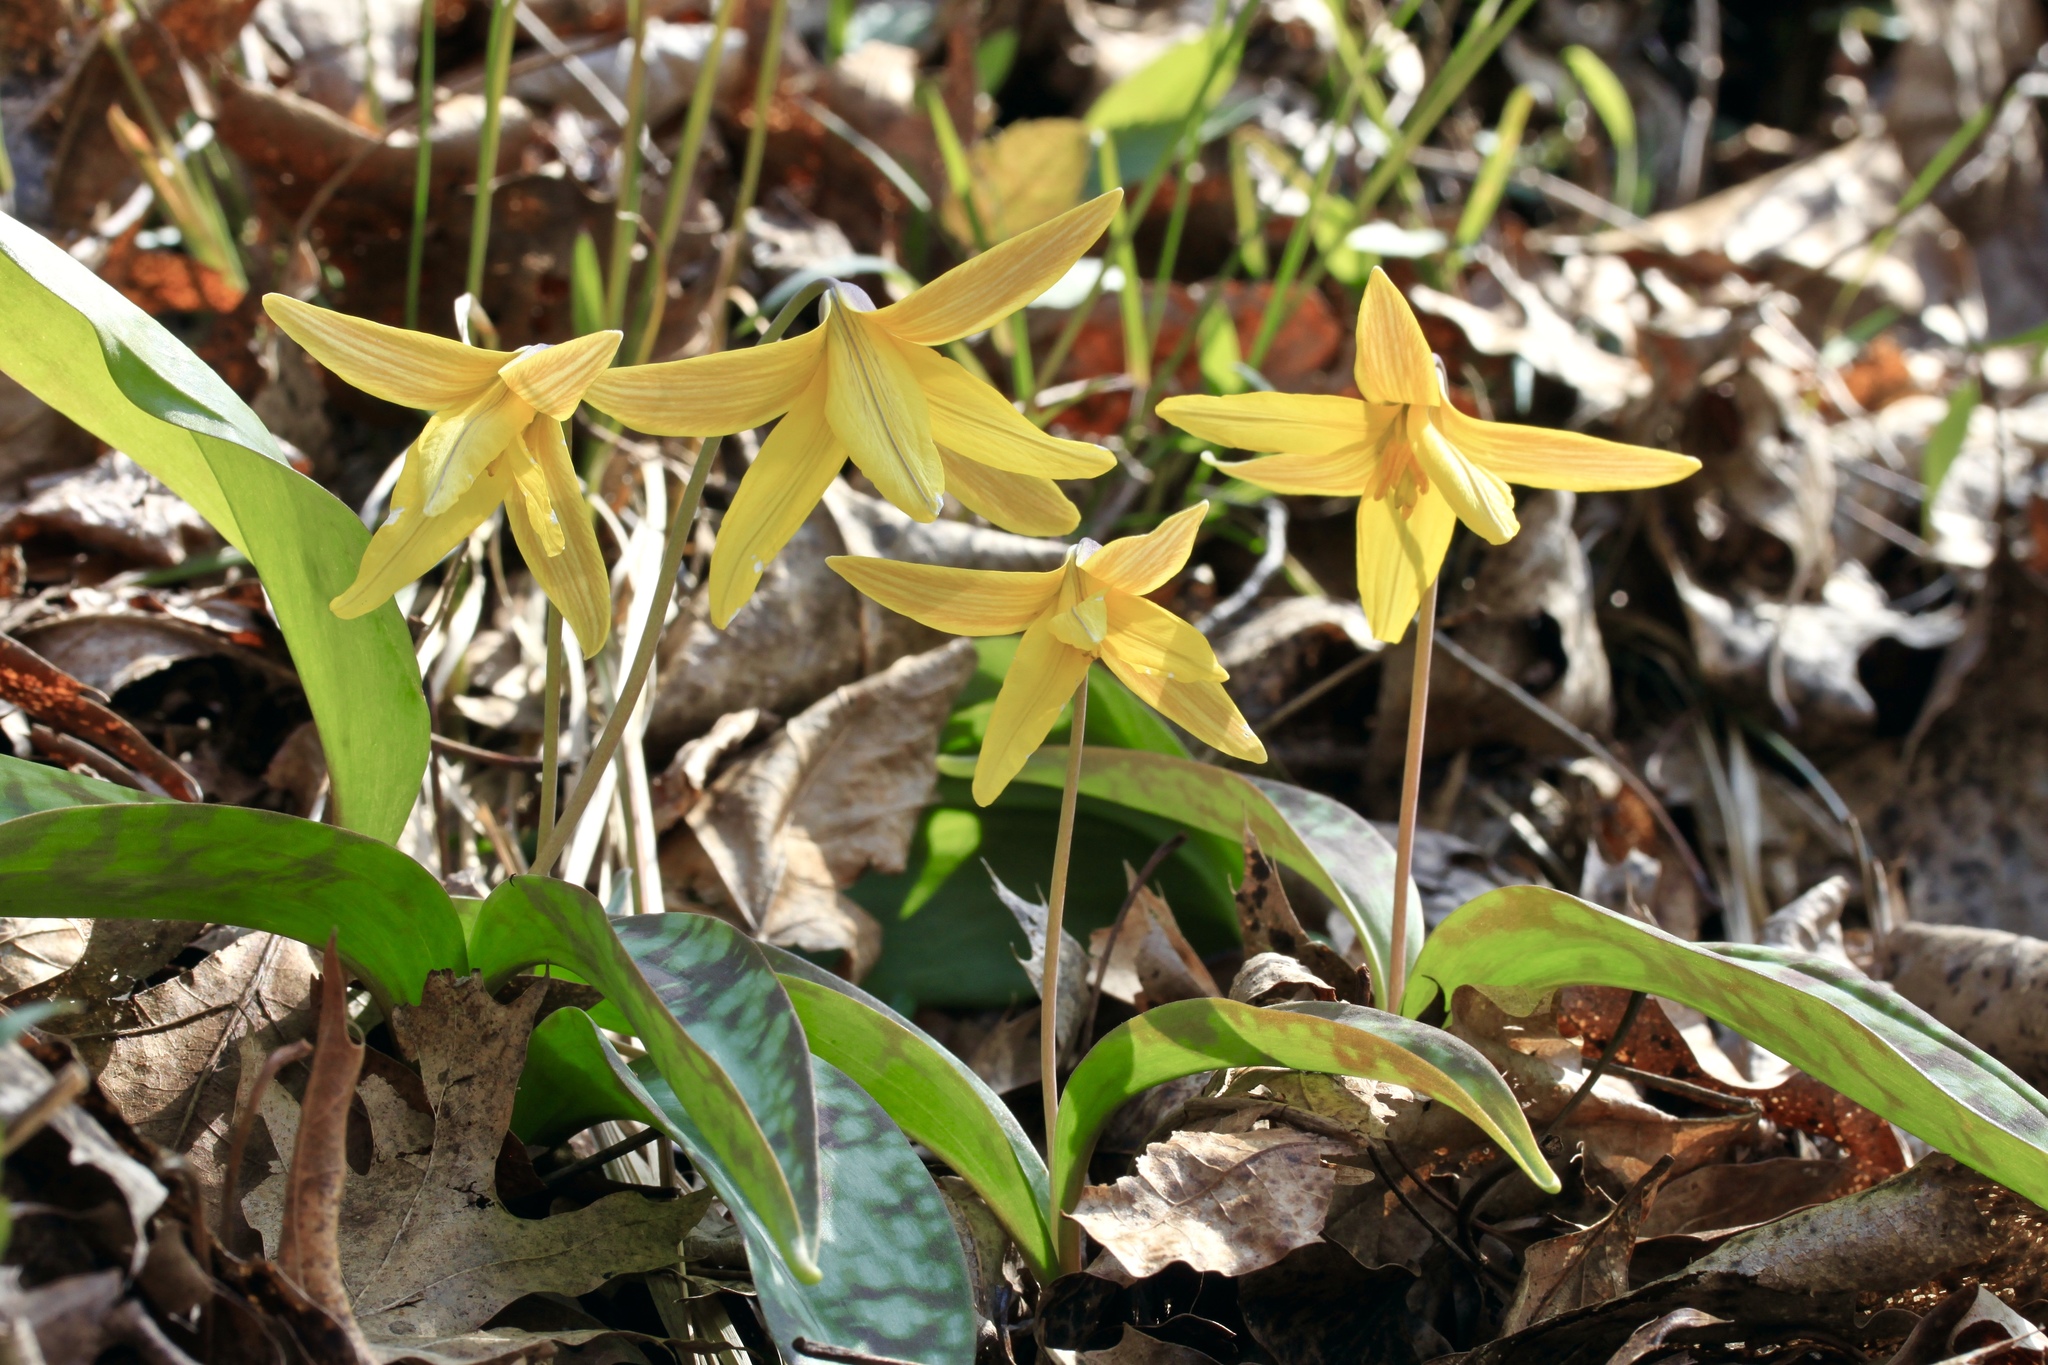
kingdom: Plantae
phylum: Tracheophyta
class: Liliopsida
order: Liliales
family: Liliaceae
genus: Erythronium
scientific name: Erythronium americanum
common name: Yellow adder's-tongue
